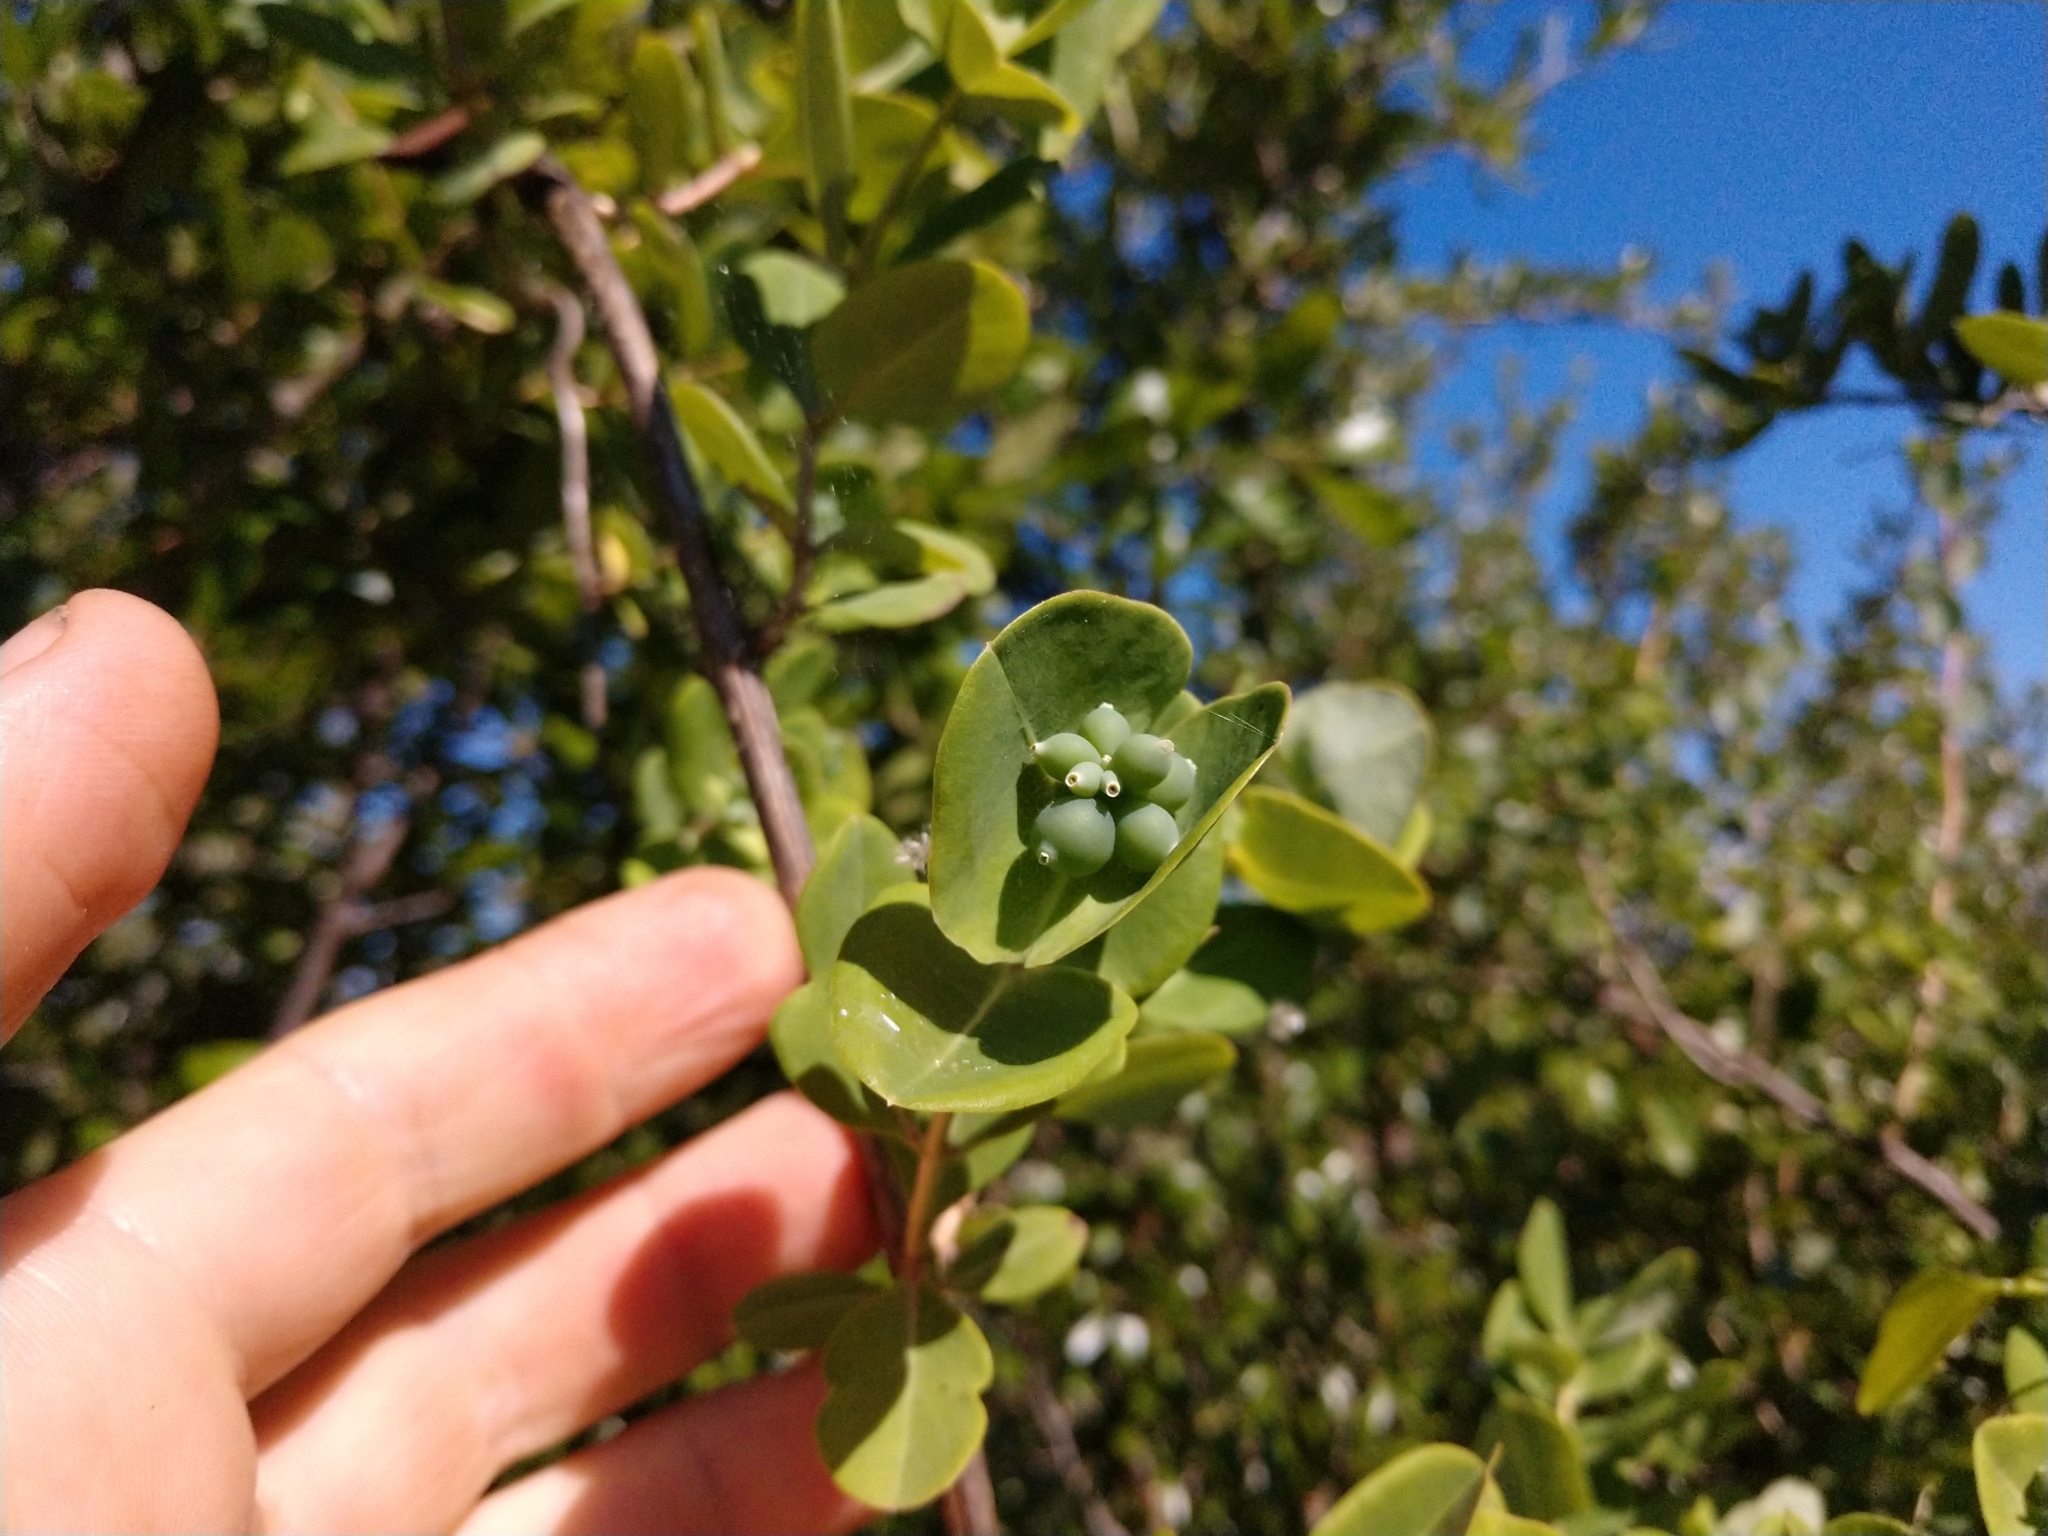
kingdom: Plantae
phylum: Tracheophyta
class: Magnoliopsida
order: Dipsacales
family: Caprifoliaceae
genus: Lonicera
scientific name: Lonicera albiflora
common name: White honeysuckle
